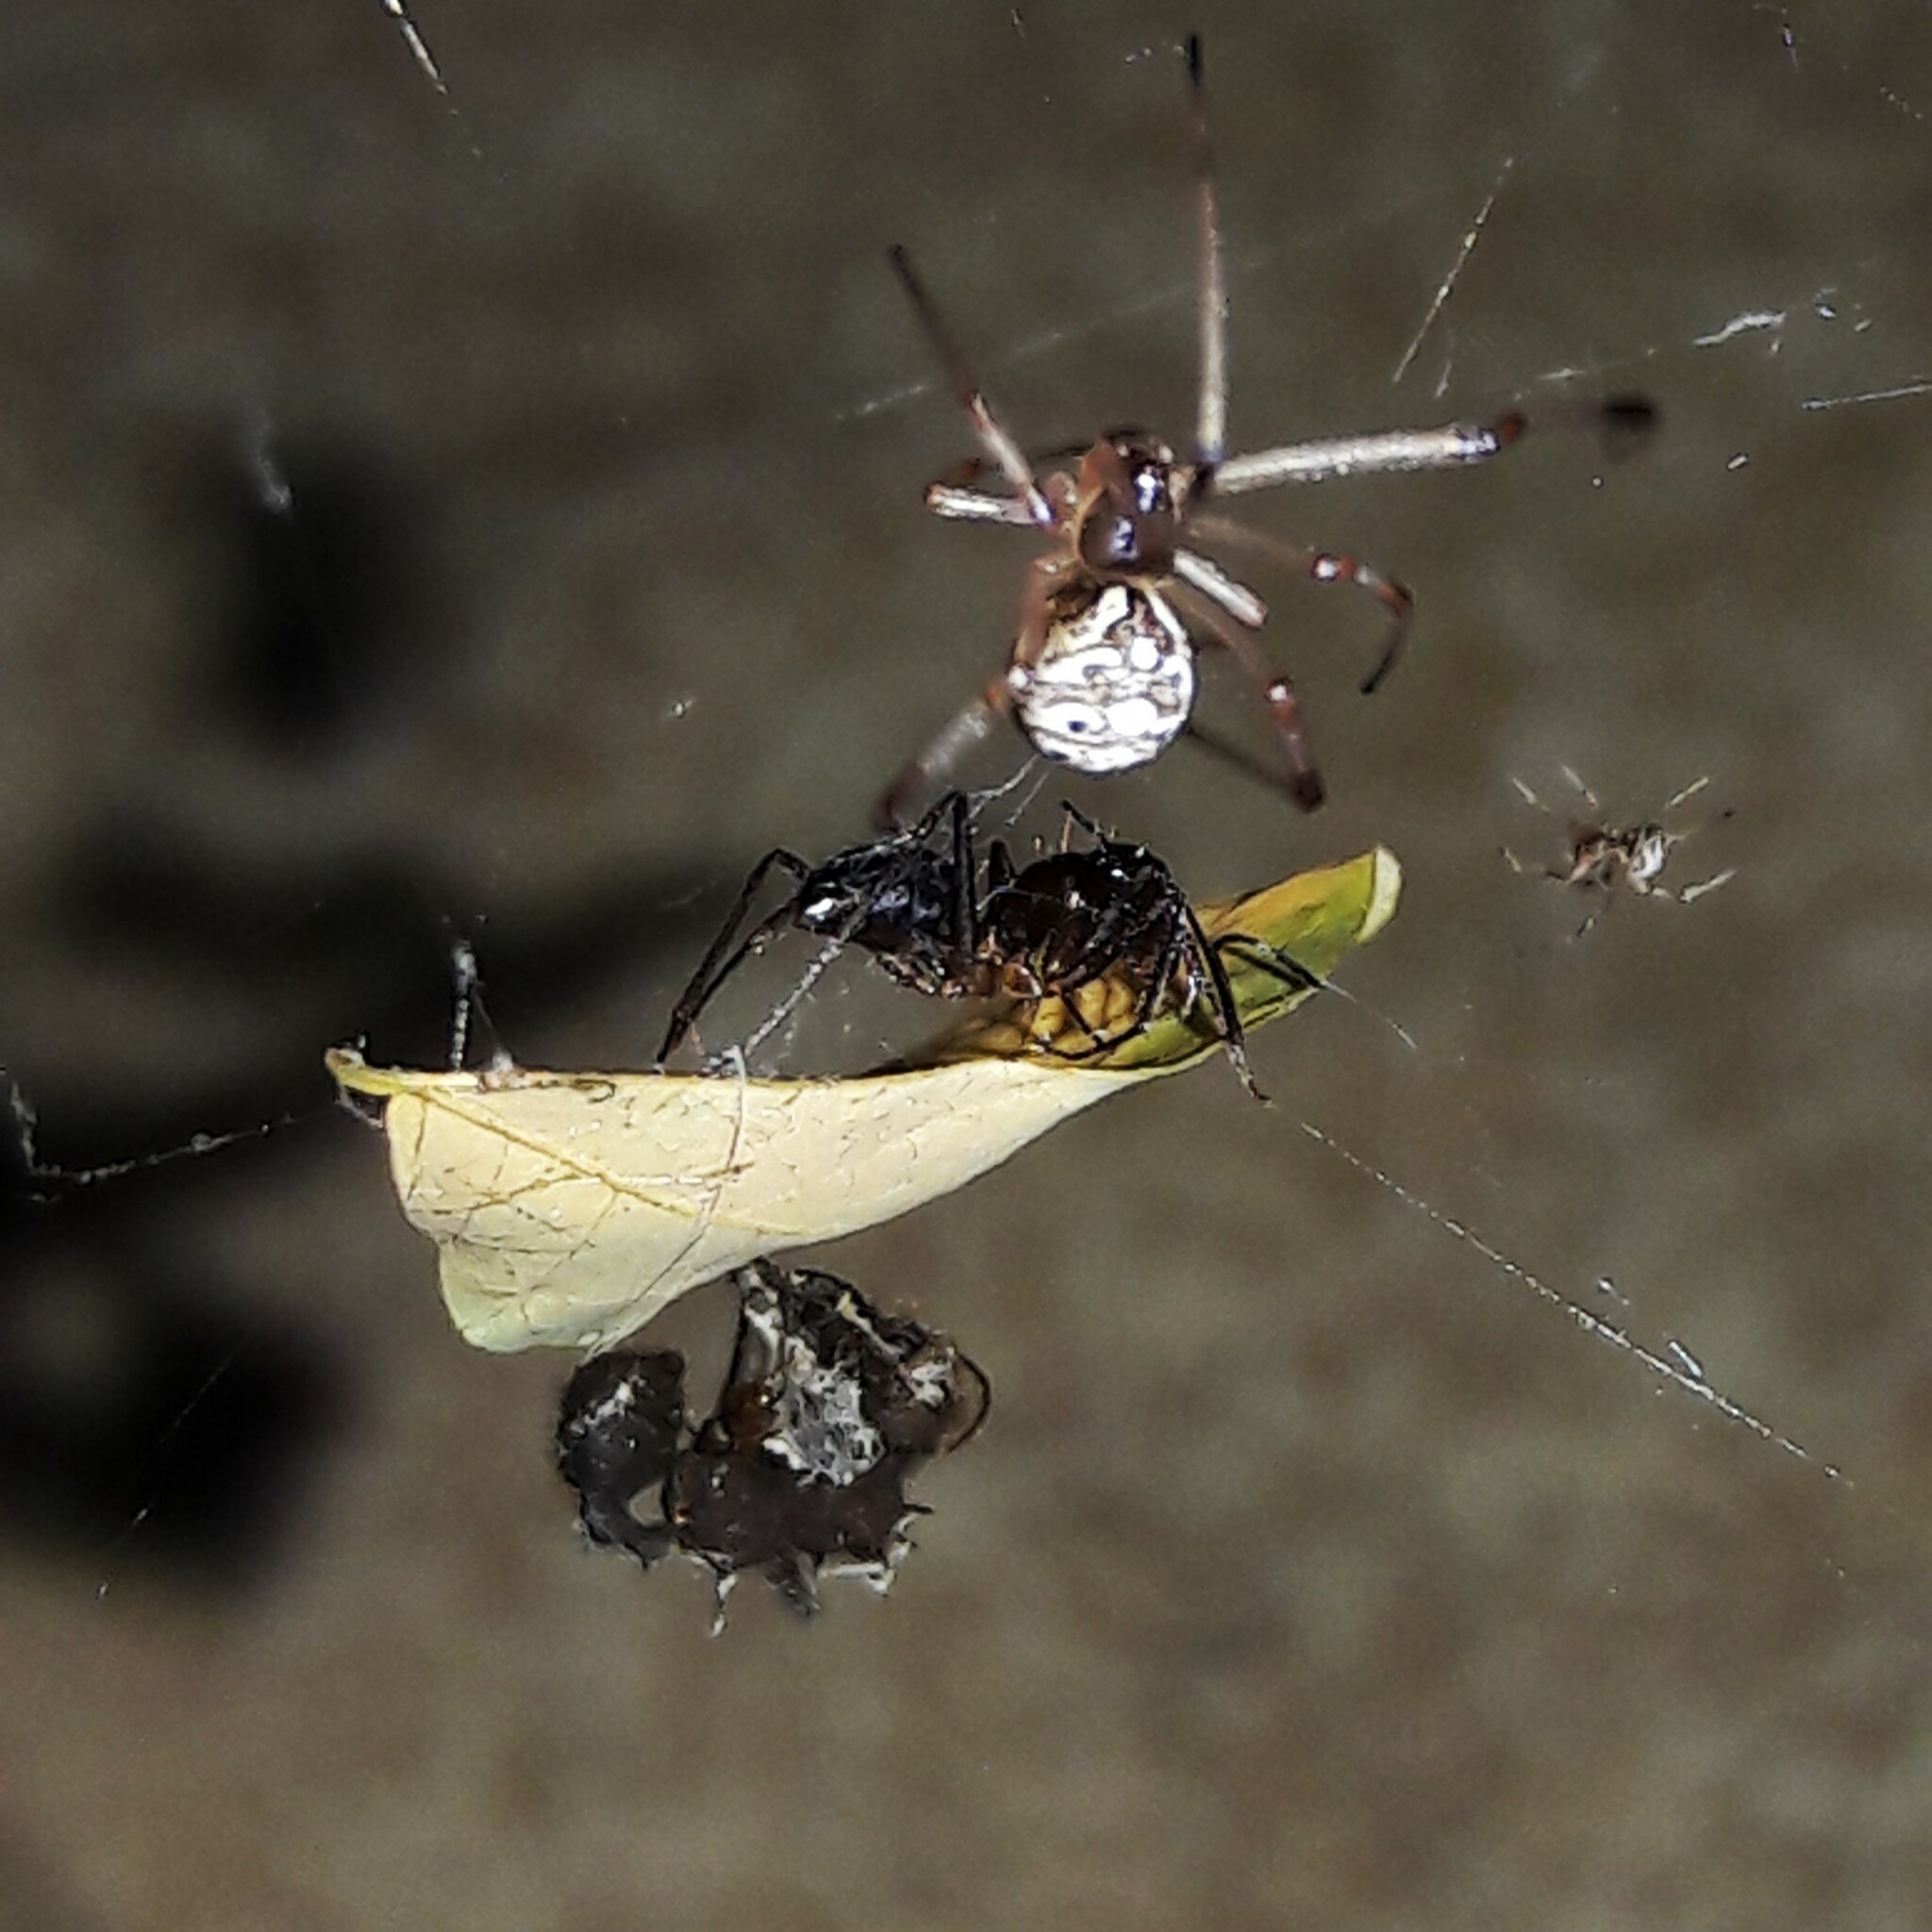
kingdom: Animalia
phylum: Arthropoda
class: Arachnida
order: Araneae
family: Theridiidae
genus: Latrodectus
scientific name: Latrodectus geometricus
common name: Brown widow spider
